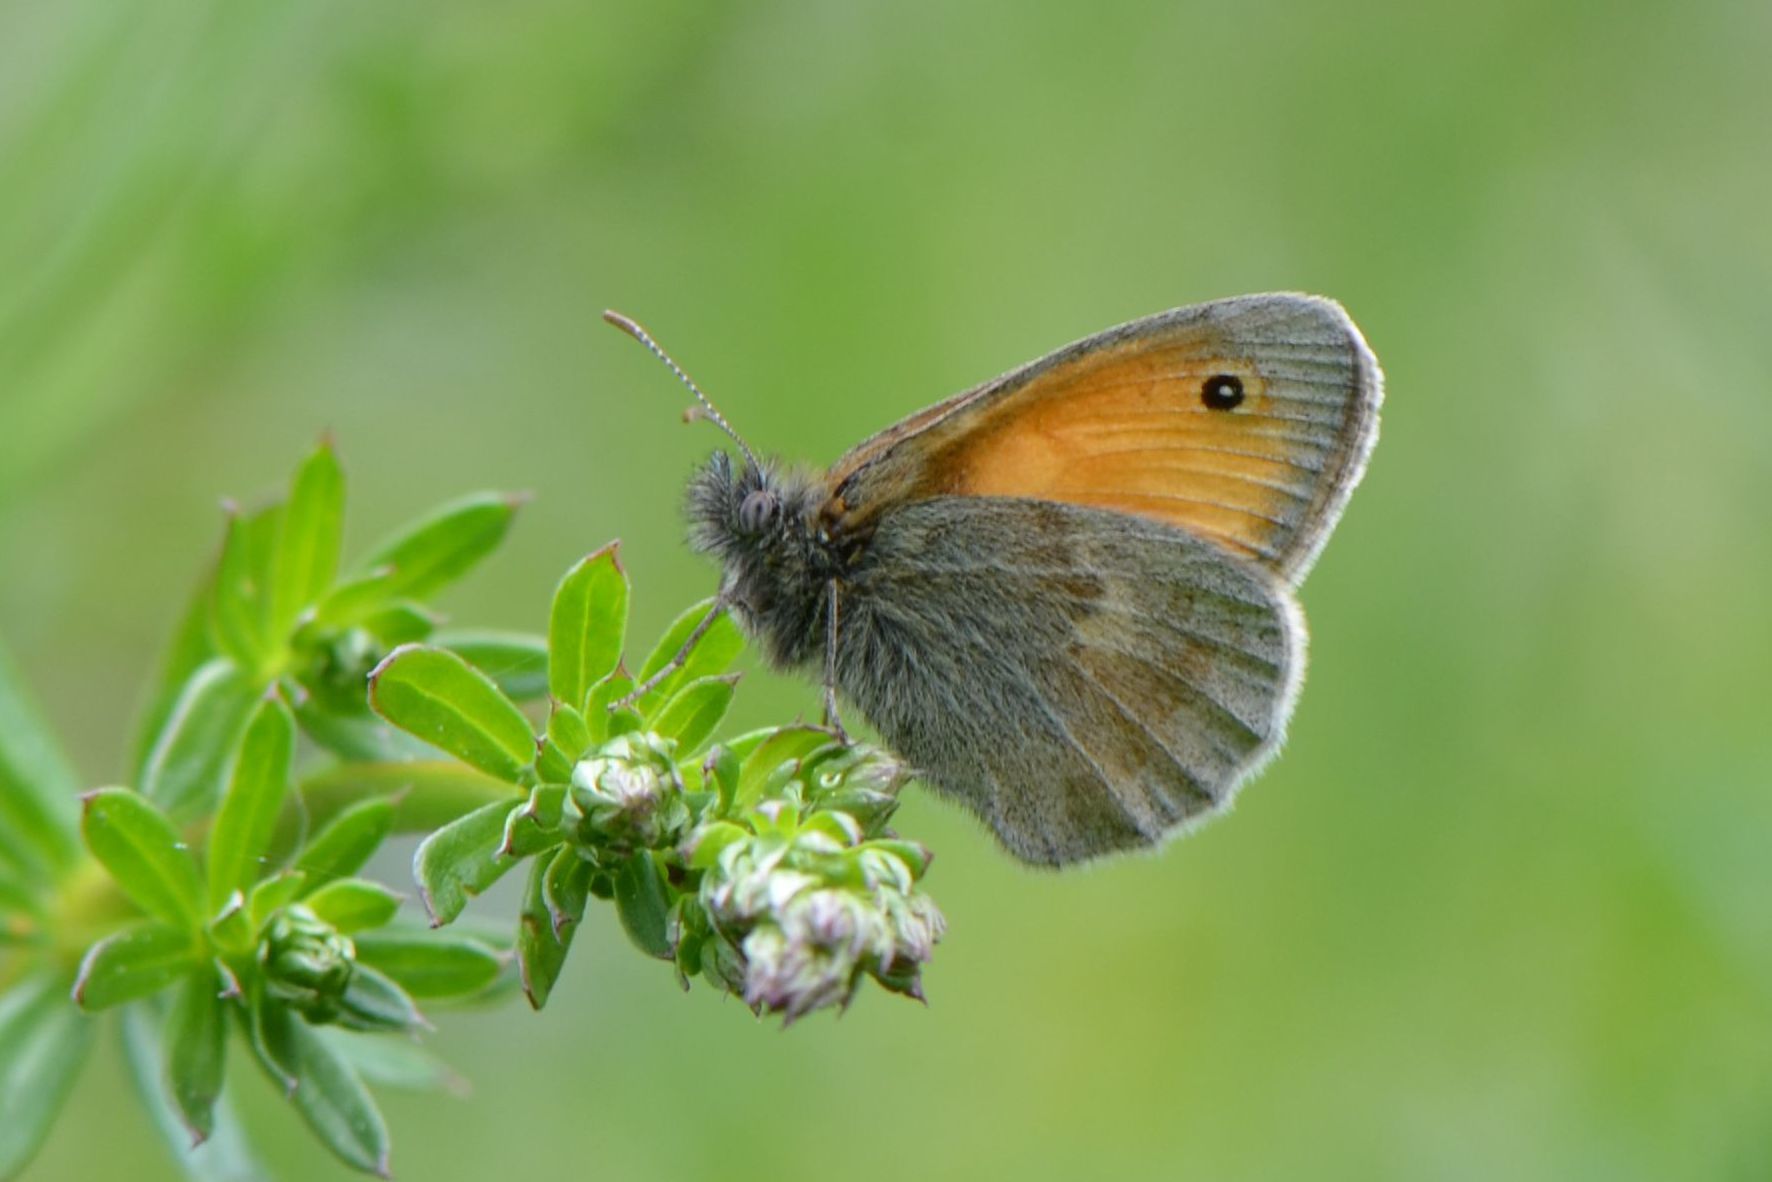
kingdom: Animalia
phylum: Arthropoda
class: Insecta
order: Lepidoptera
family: Nymphalidae
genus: Coenonympha
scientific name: Coenonympha pamphilus
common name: Small heath
